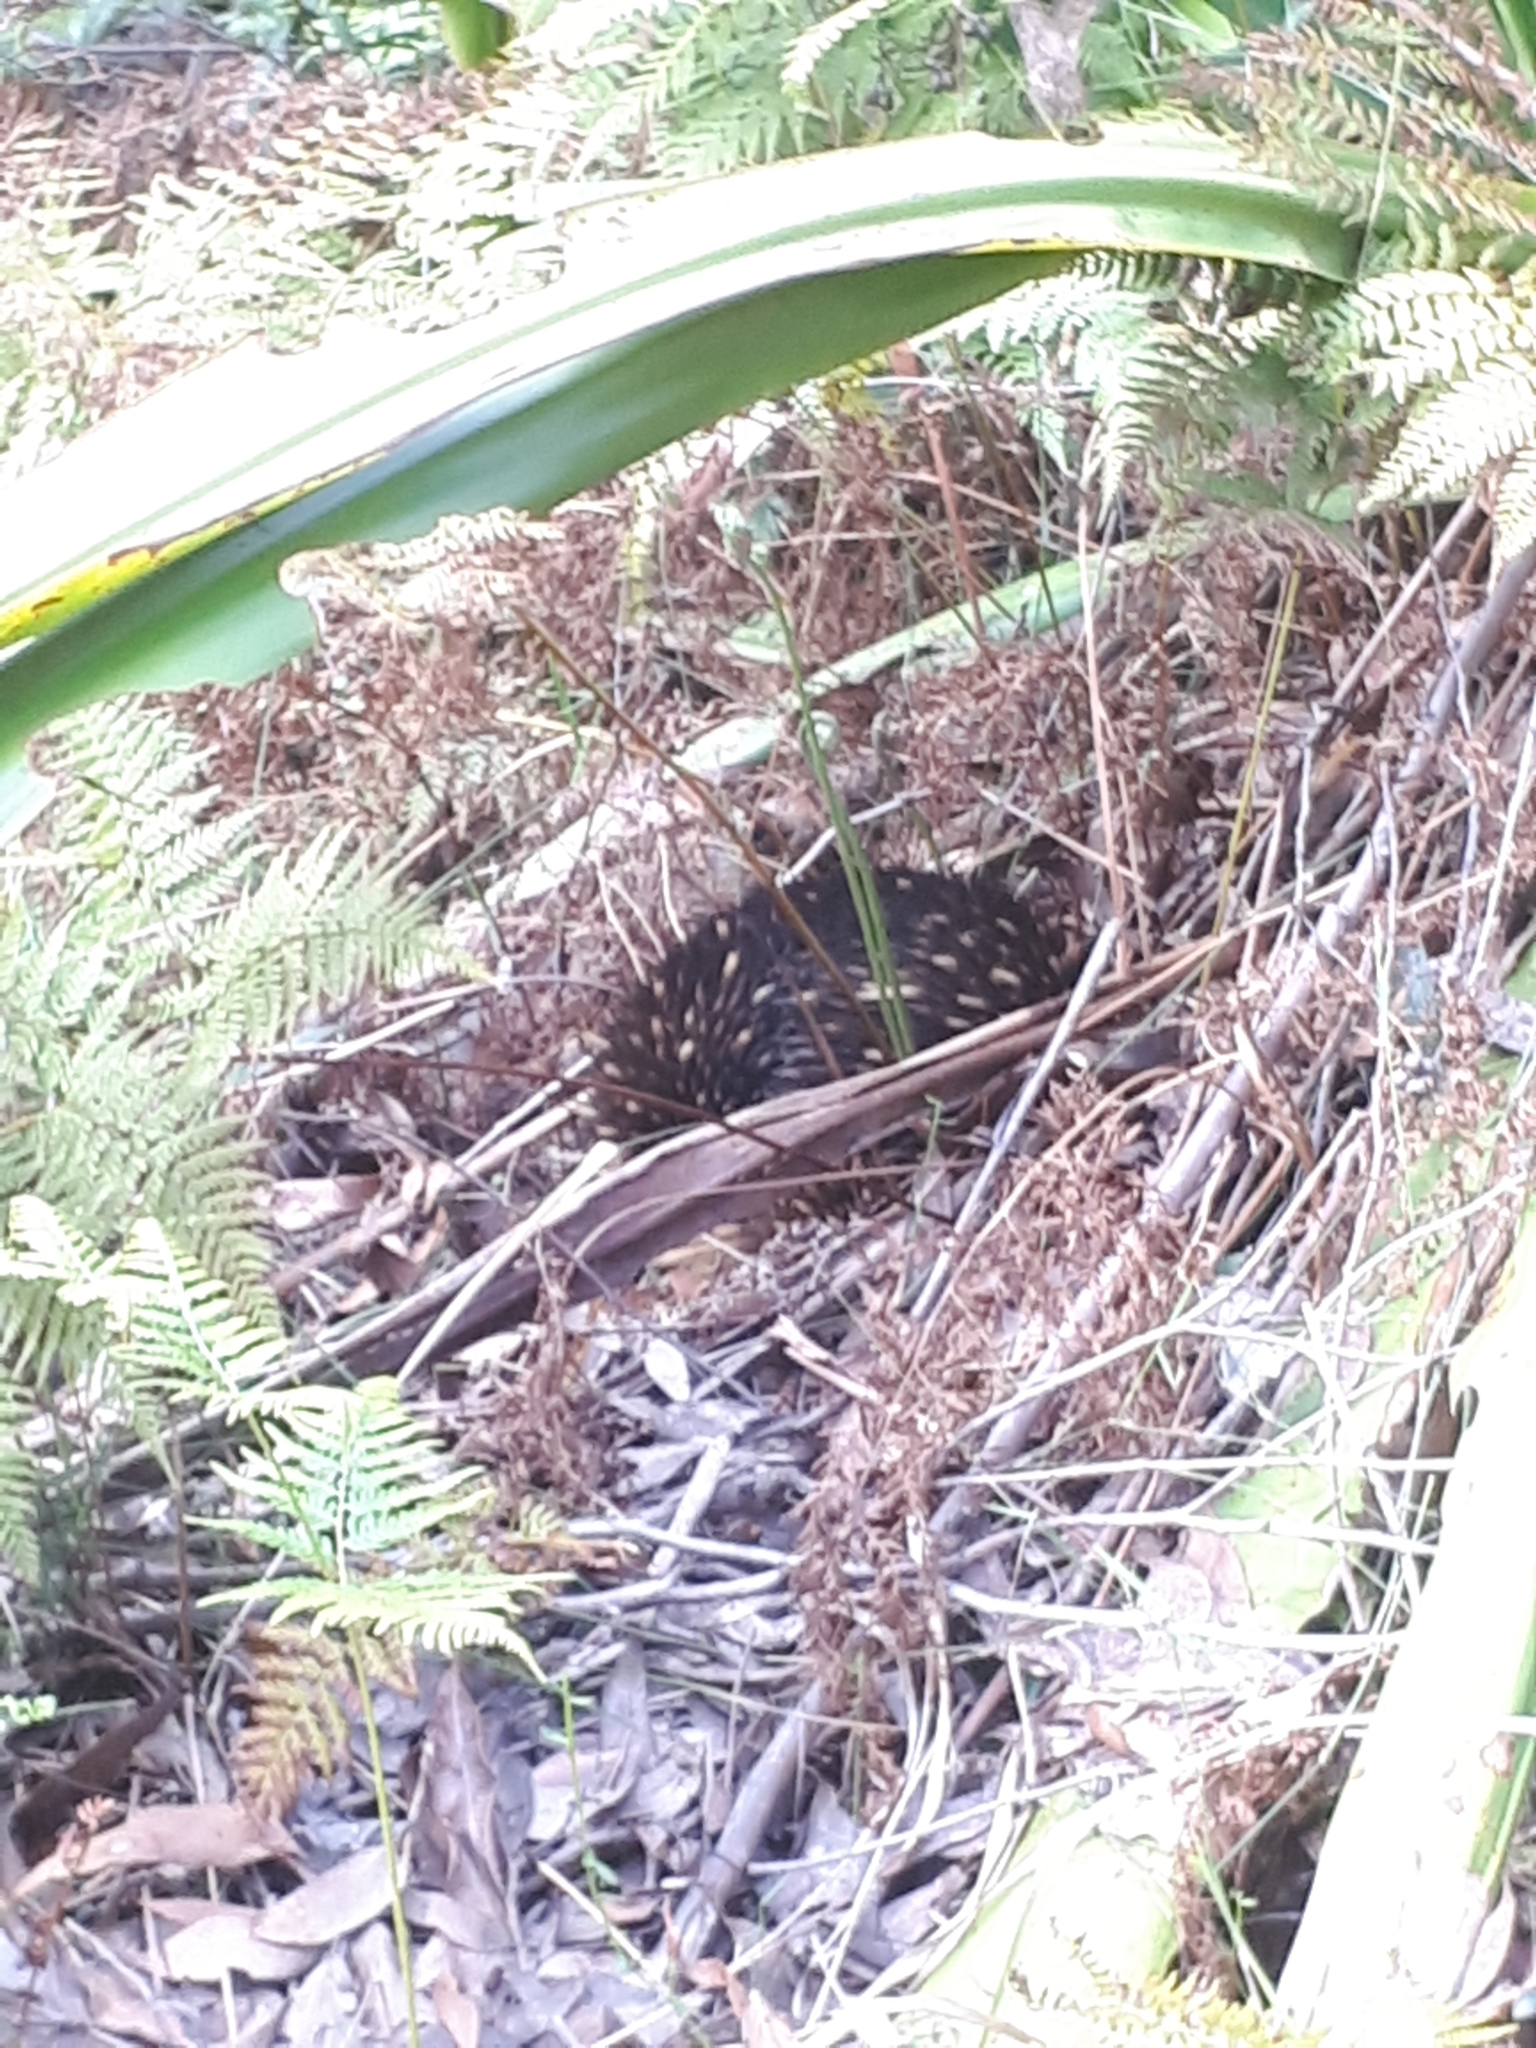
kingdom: Animalia
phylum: Chordata
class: Mammalia
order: Monotremata
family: Tachyglossidae
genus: Tachyglossus
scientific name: Tachyglossus aculeatus
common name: Short-beaked echidna
